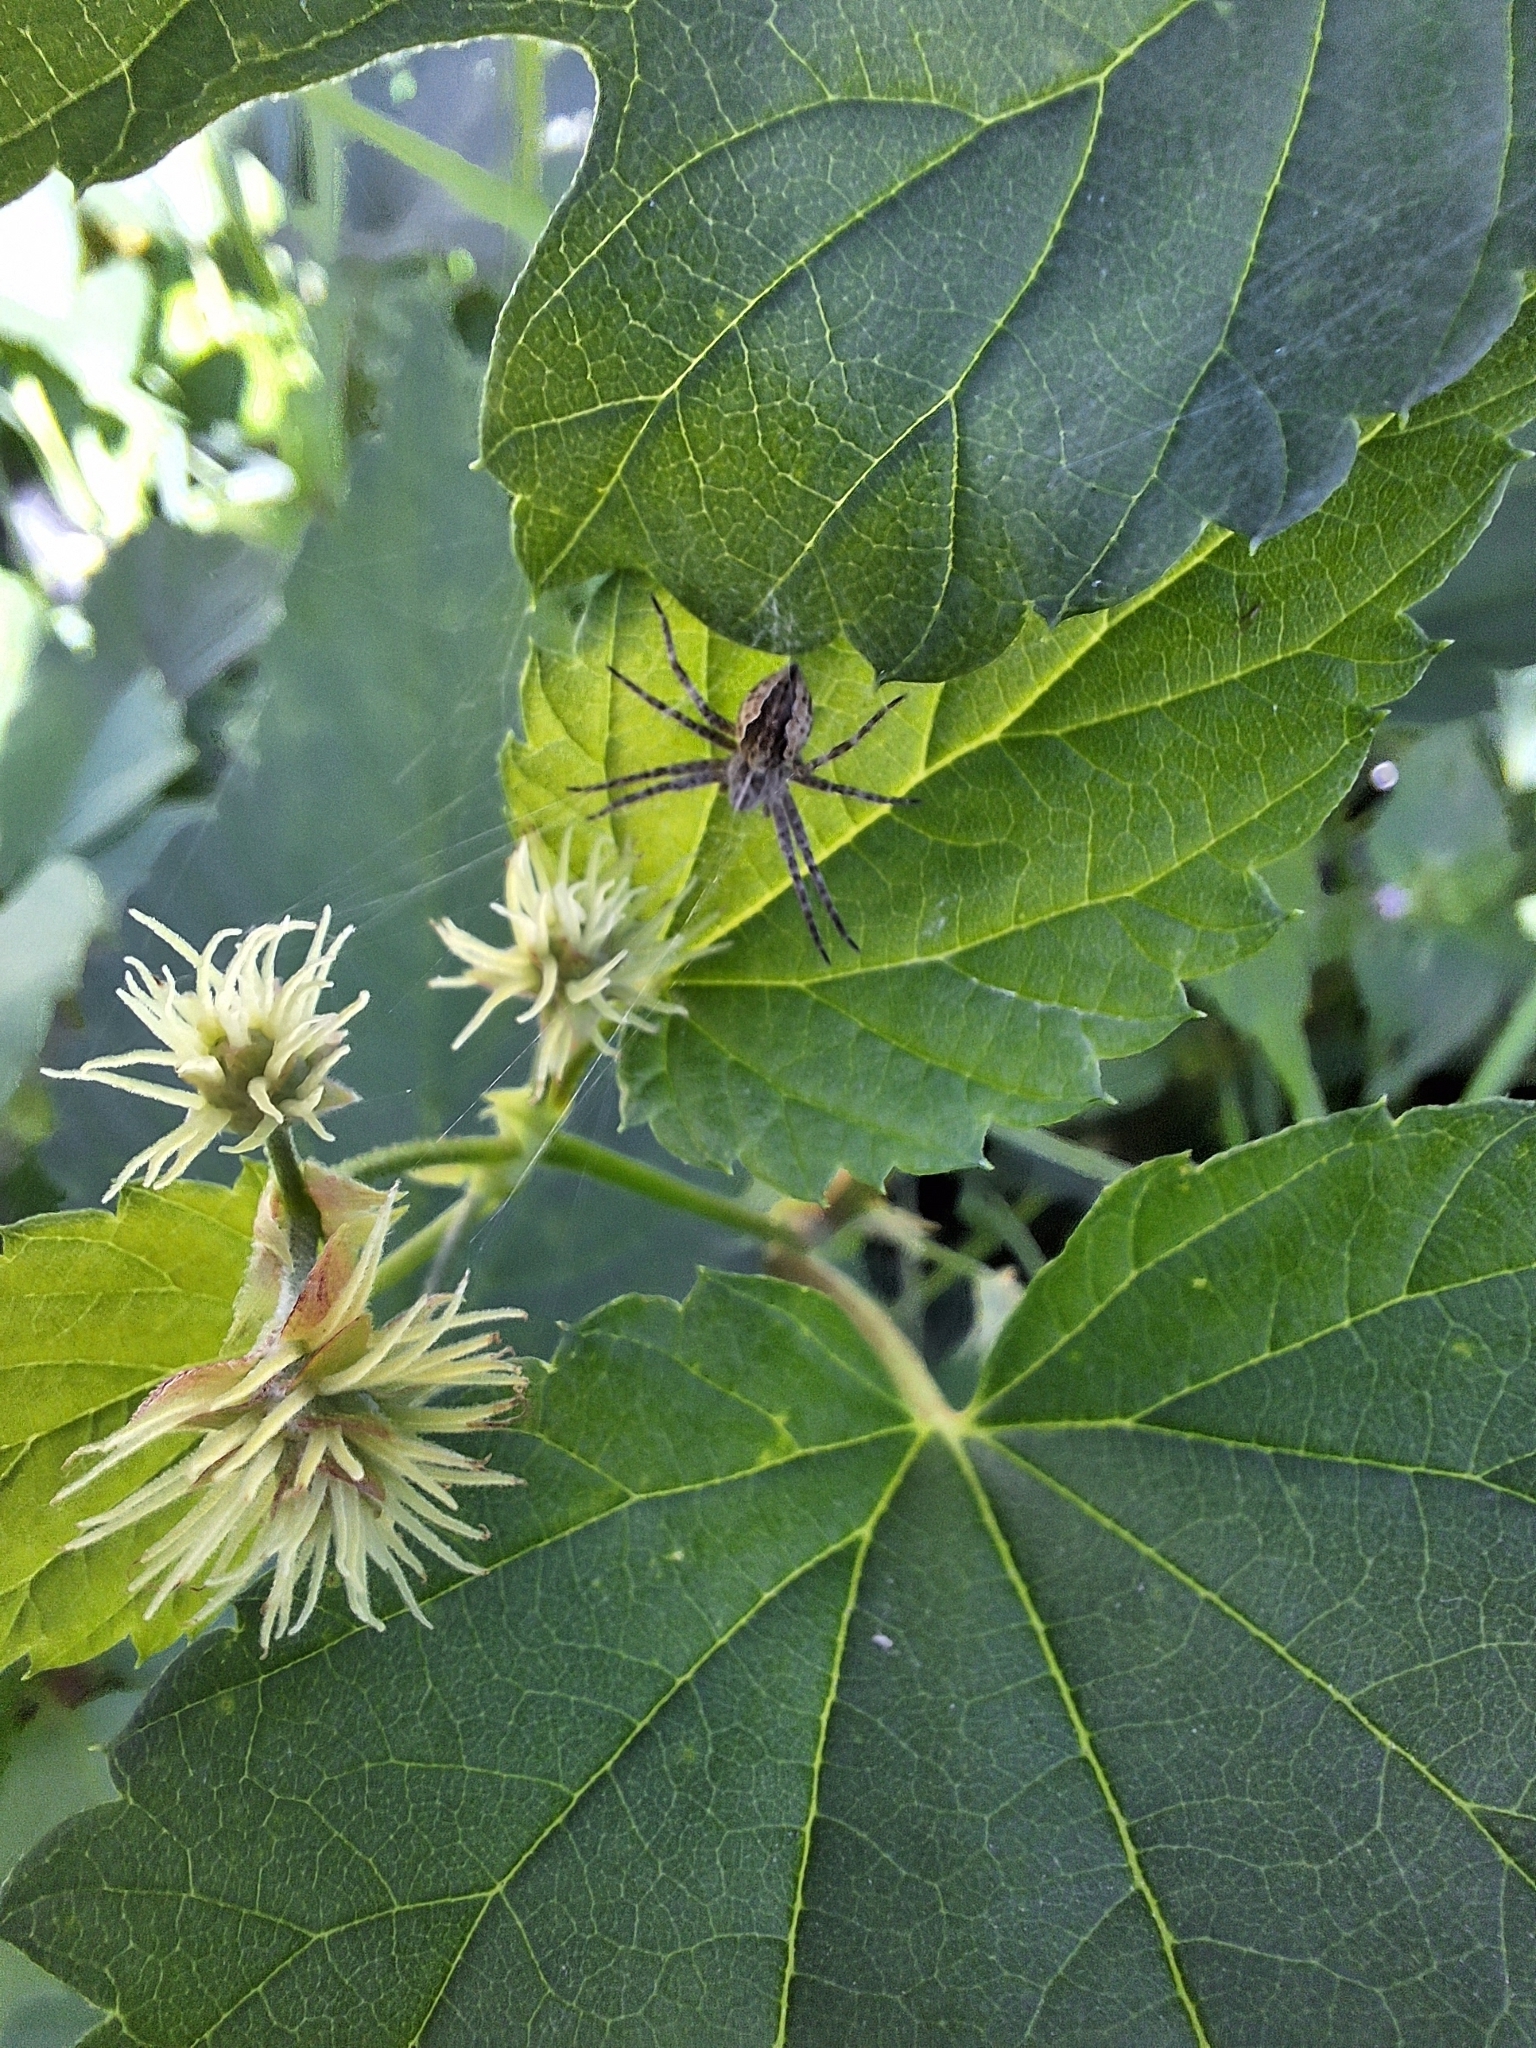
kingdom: Animalia
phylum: Arthropoda
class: Arachnida
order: Araneae
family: Pisauridae
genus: Pisaura
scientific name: Pisaura mirabilis
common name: Tent spider
